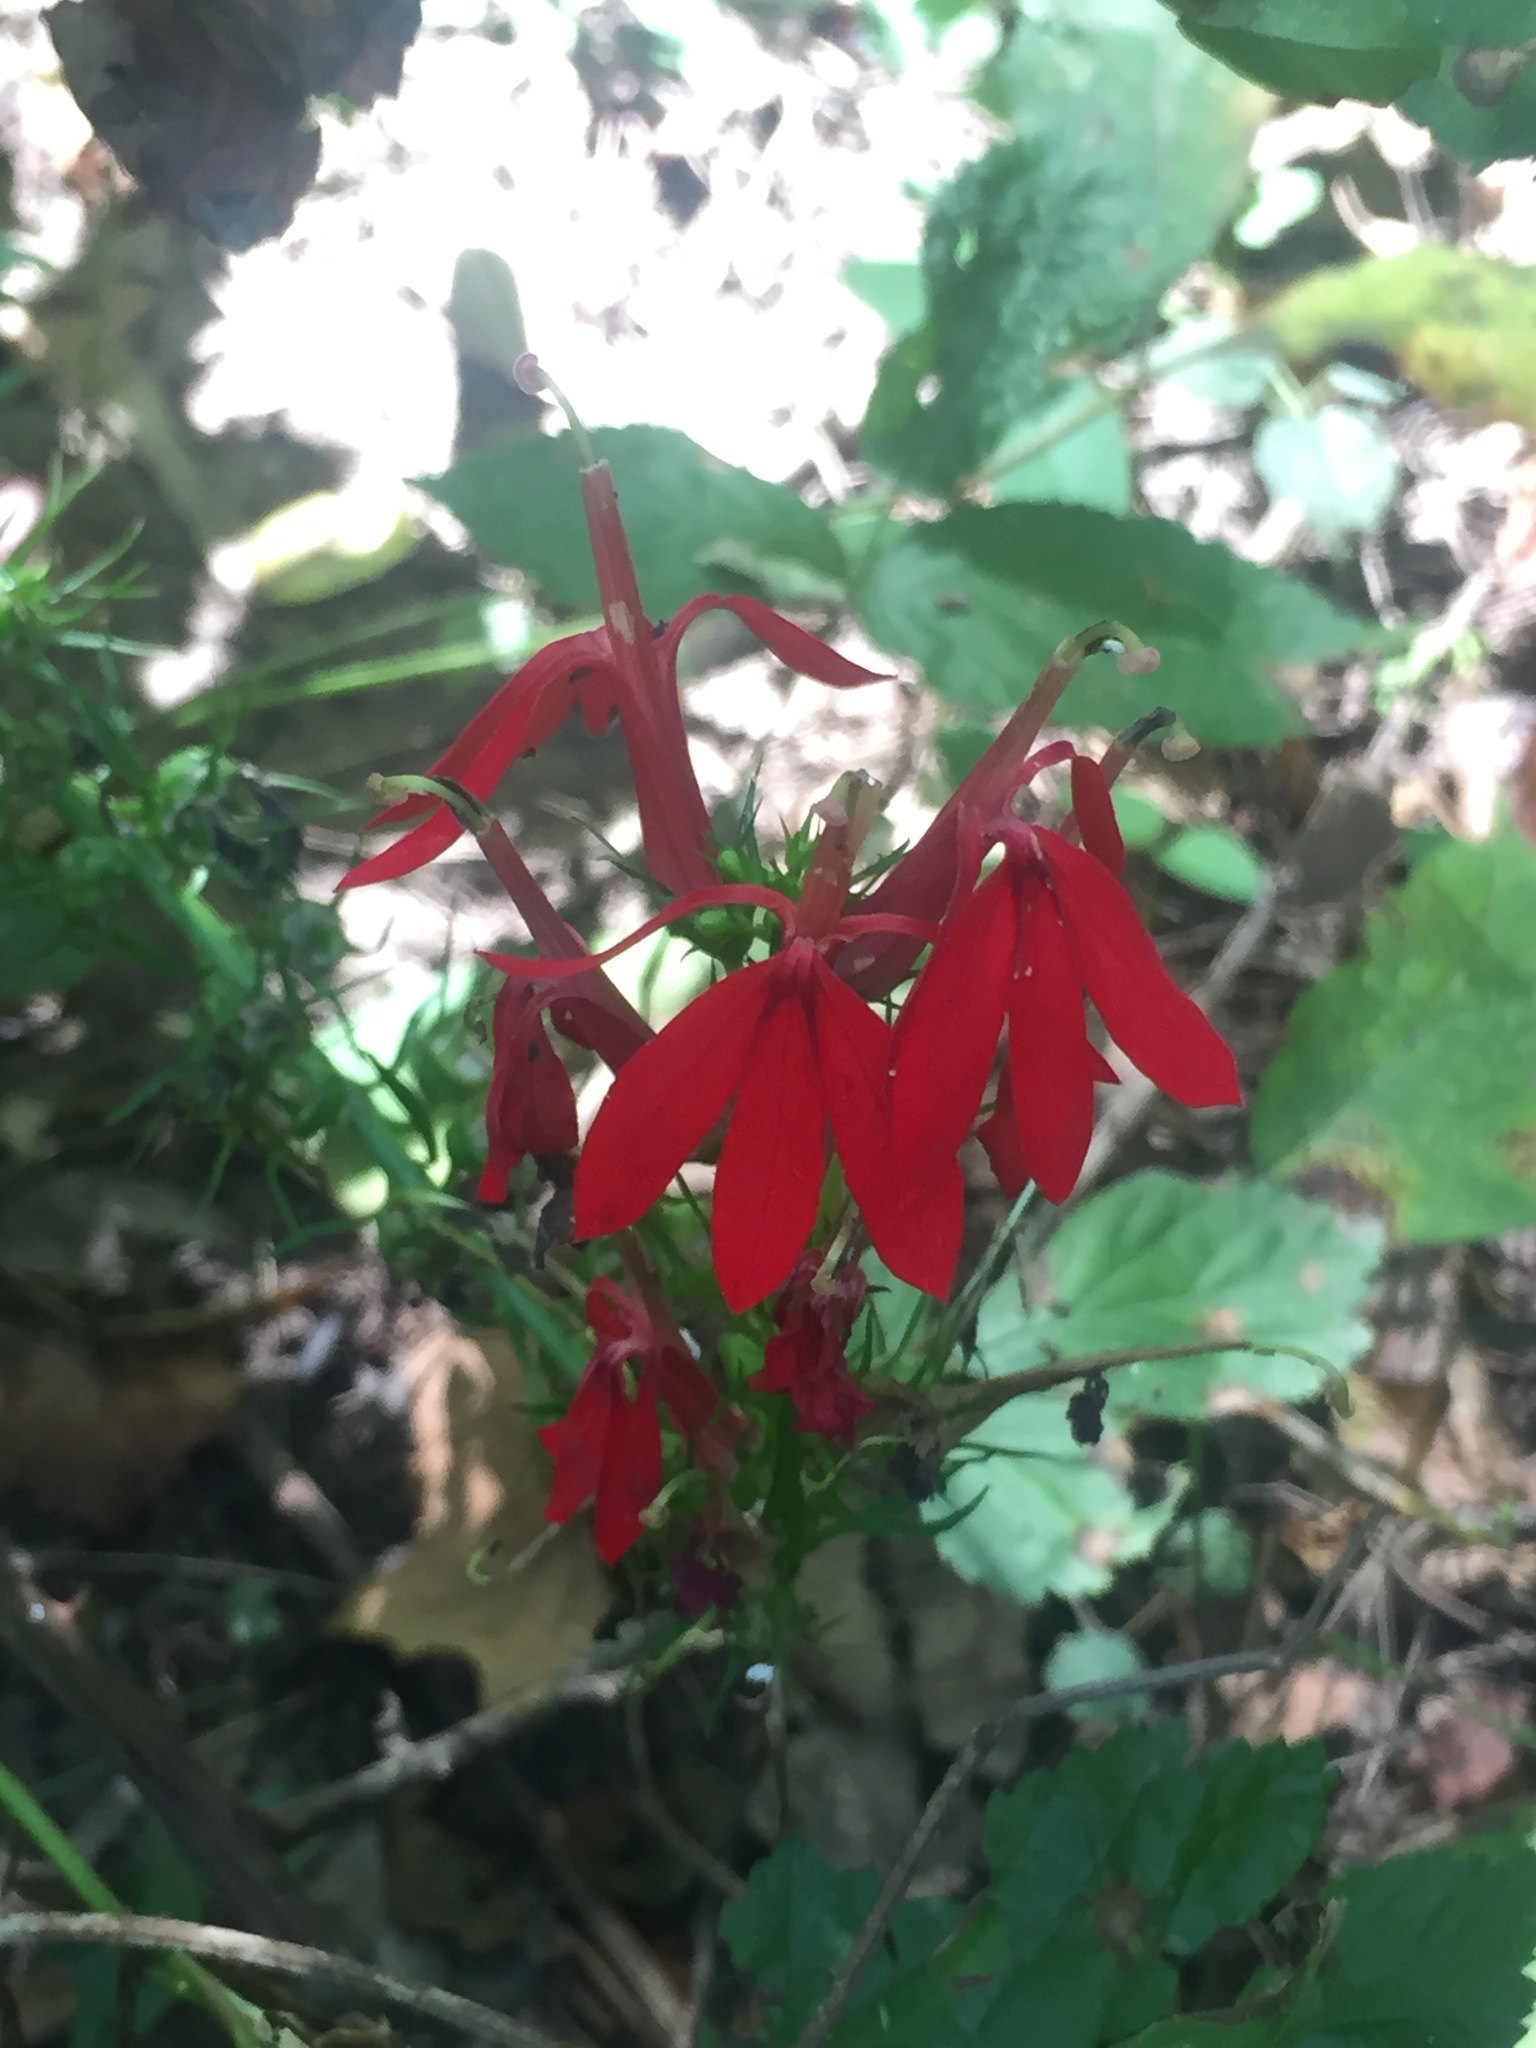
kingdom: Plantae
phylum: Tracheophyta
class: Magnoliopsida
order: Asterales
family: Campanulaceae
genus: Lobelia
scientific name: Lobelia cardinalis
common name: Cardinal flower
